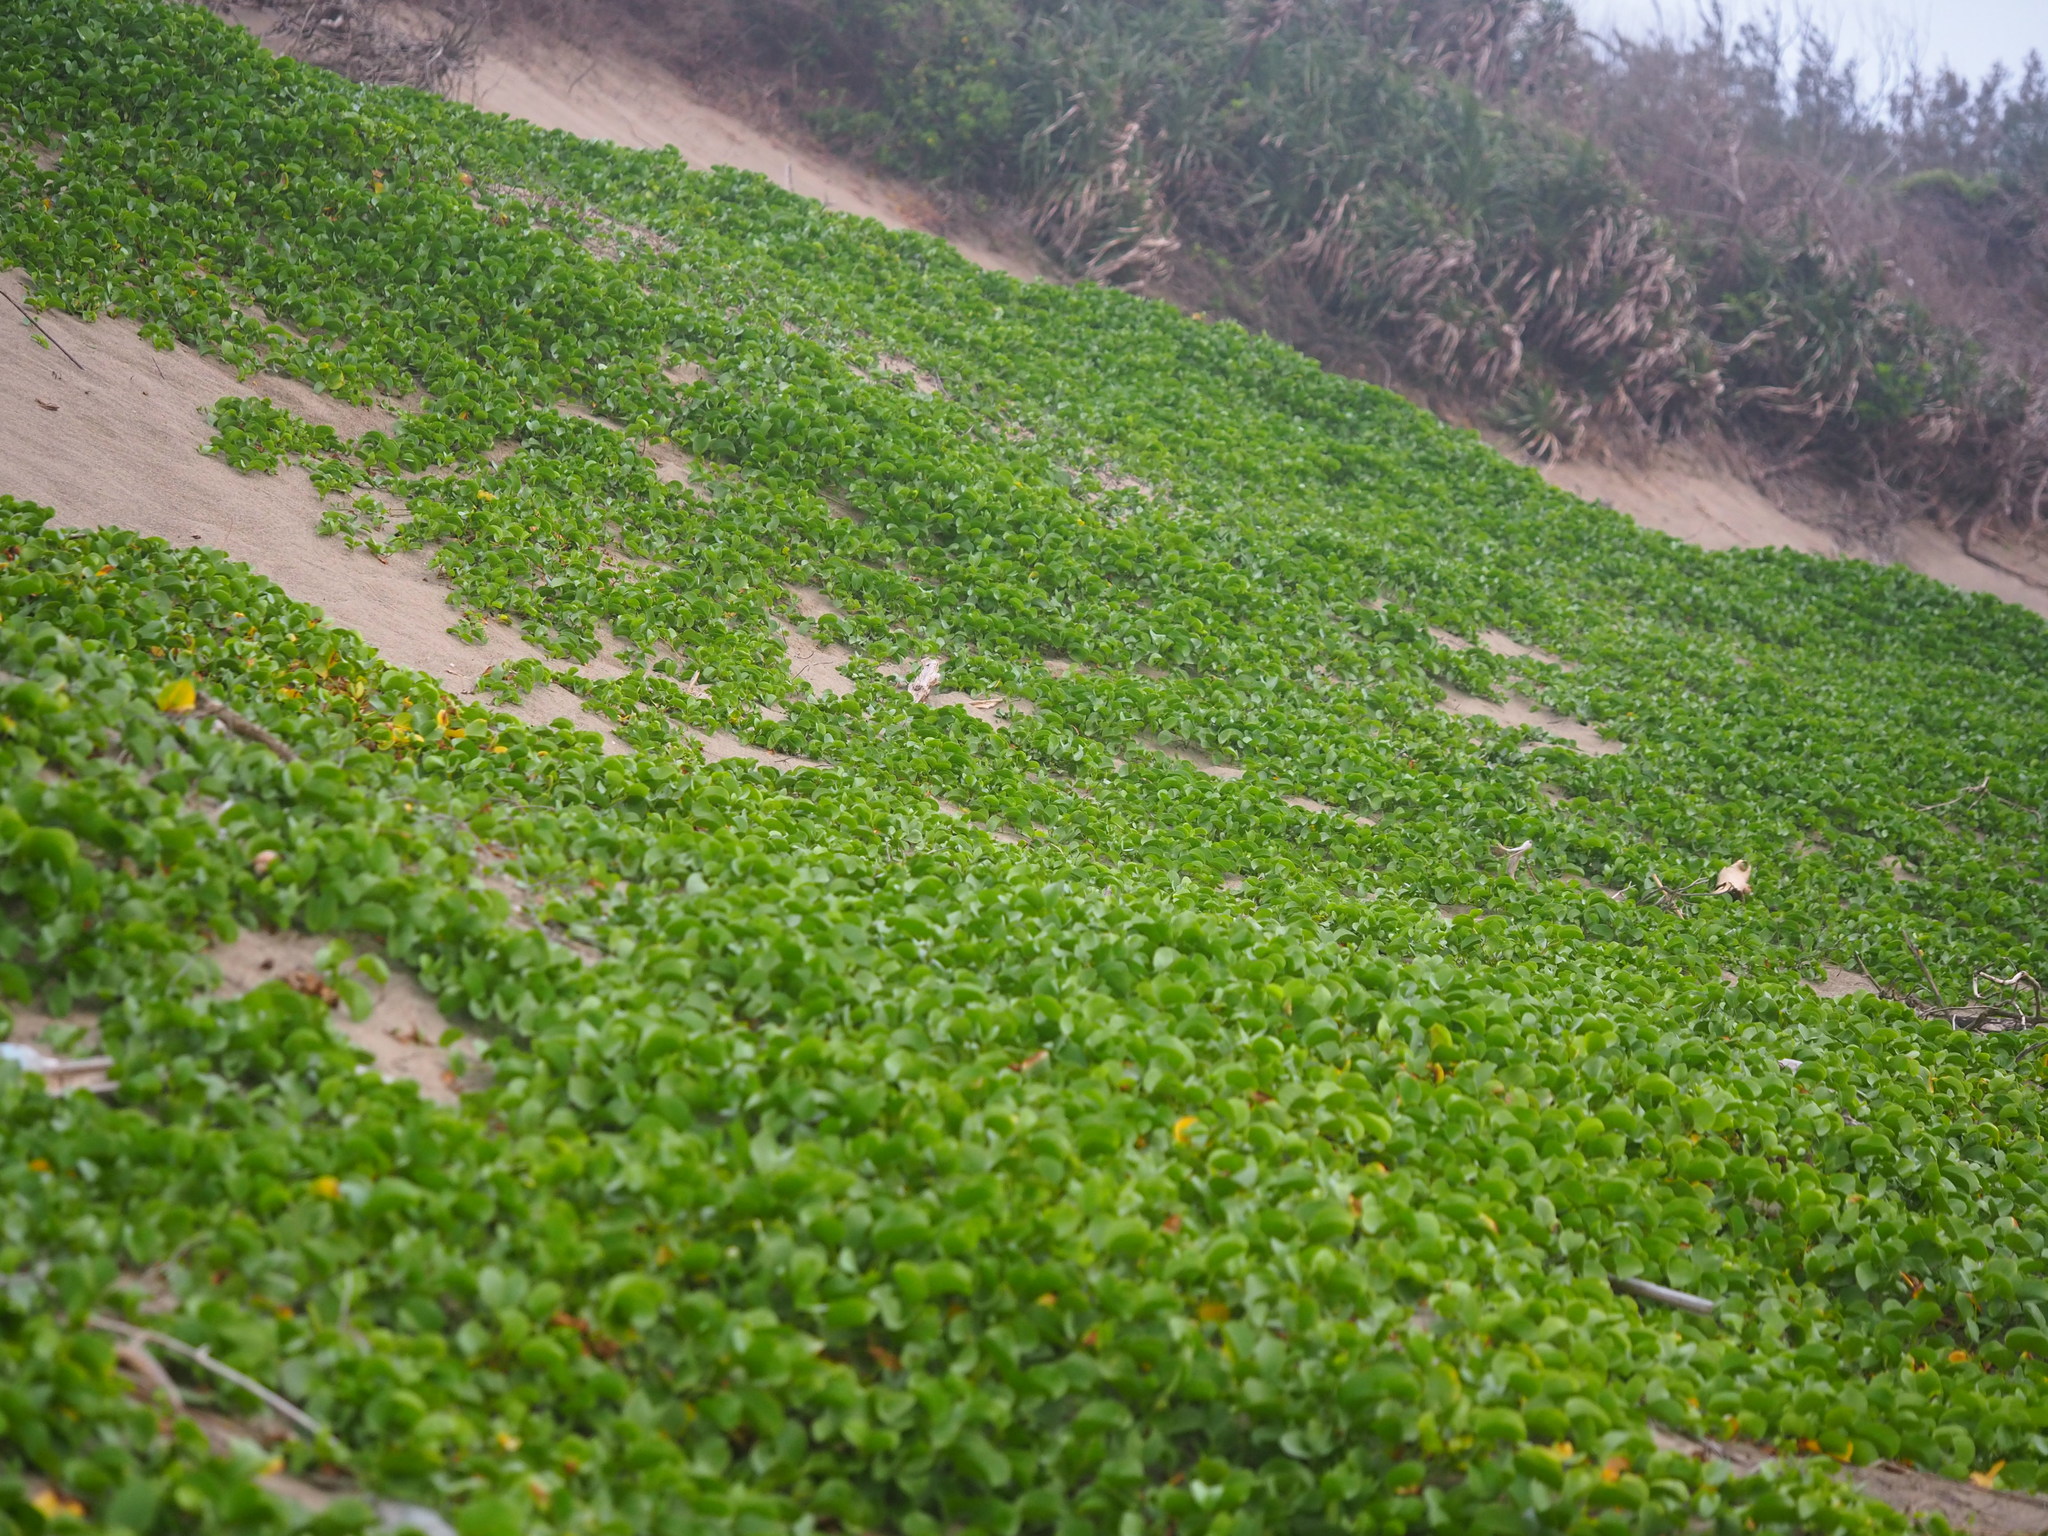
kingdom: Plantae
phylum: Tracheophyta
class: Magnoliopsida
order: Solanales
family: Convolvulaceae
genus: Ipomoea
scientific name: Ipomoea pes-caprae
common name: Beach morning glory
